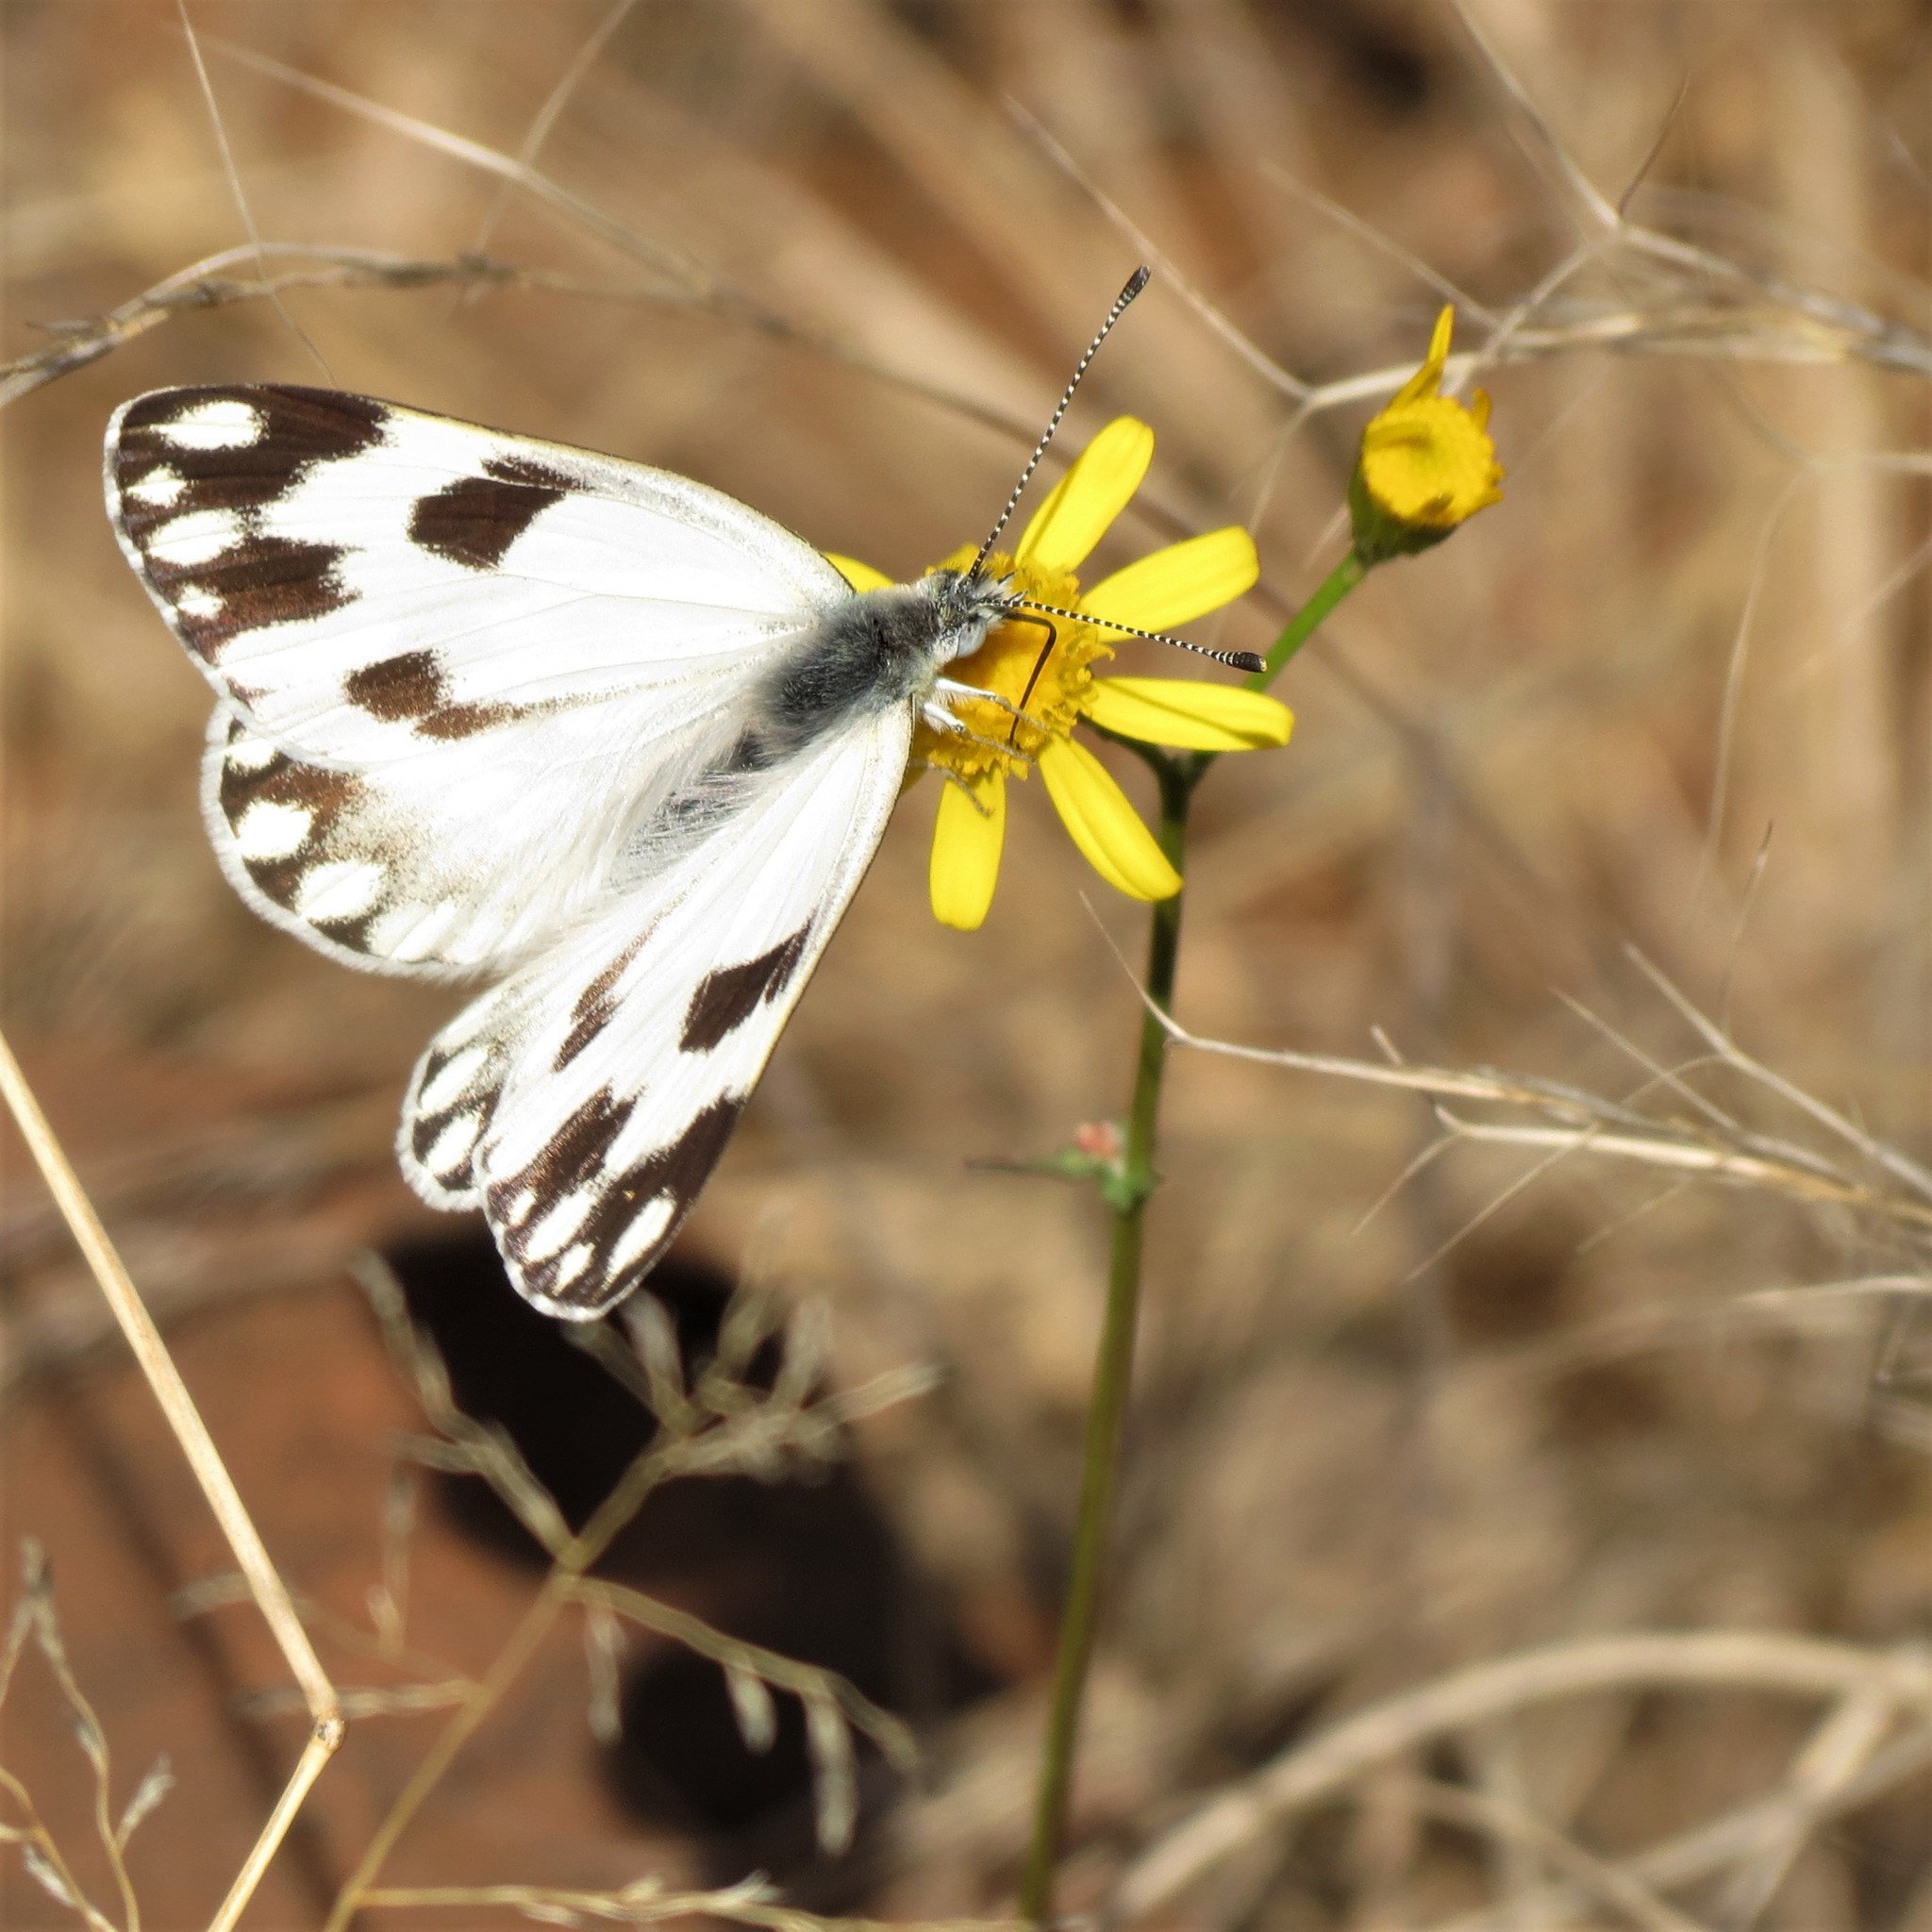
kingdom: Animalia
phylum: Arthropoda
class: Insecta
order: Lepidoptera
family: Pieridae
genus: Pontia
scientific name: Pontia helice
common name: Meadow white
